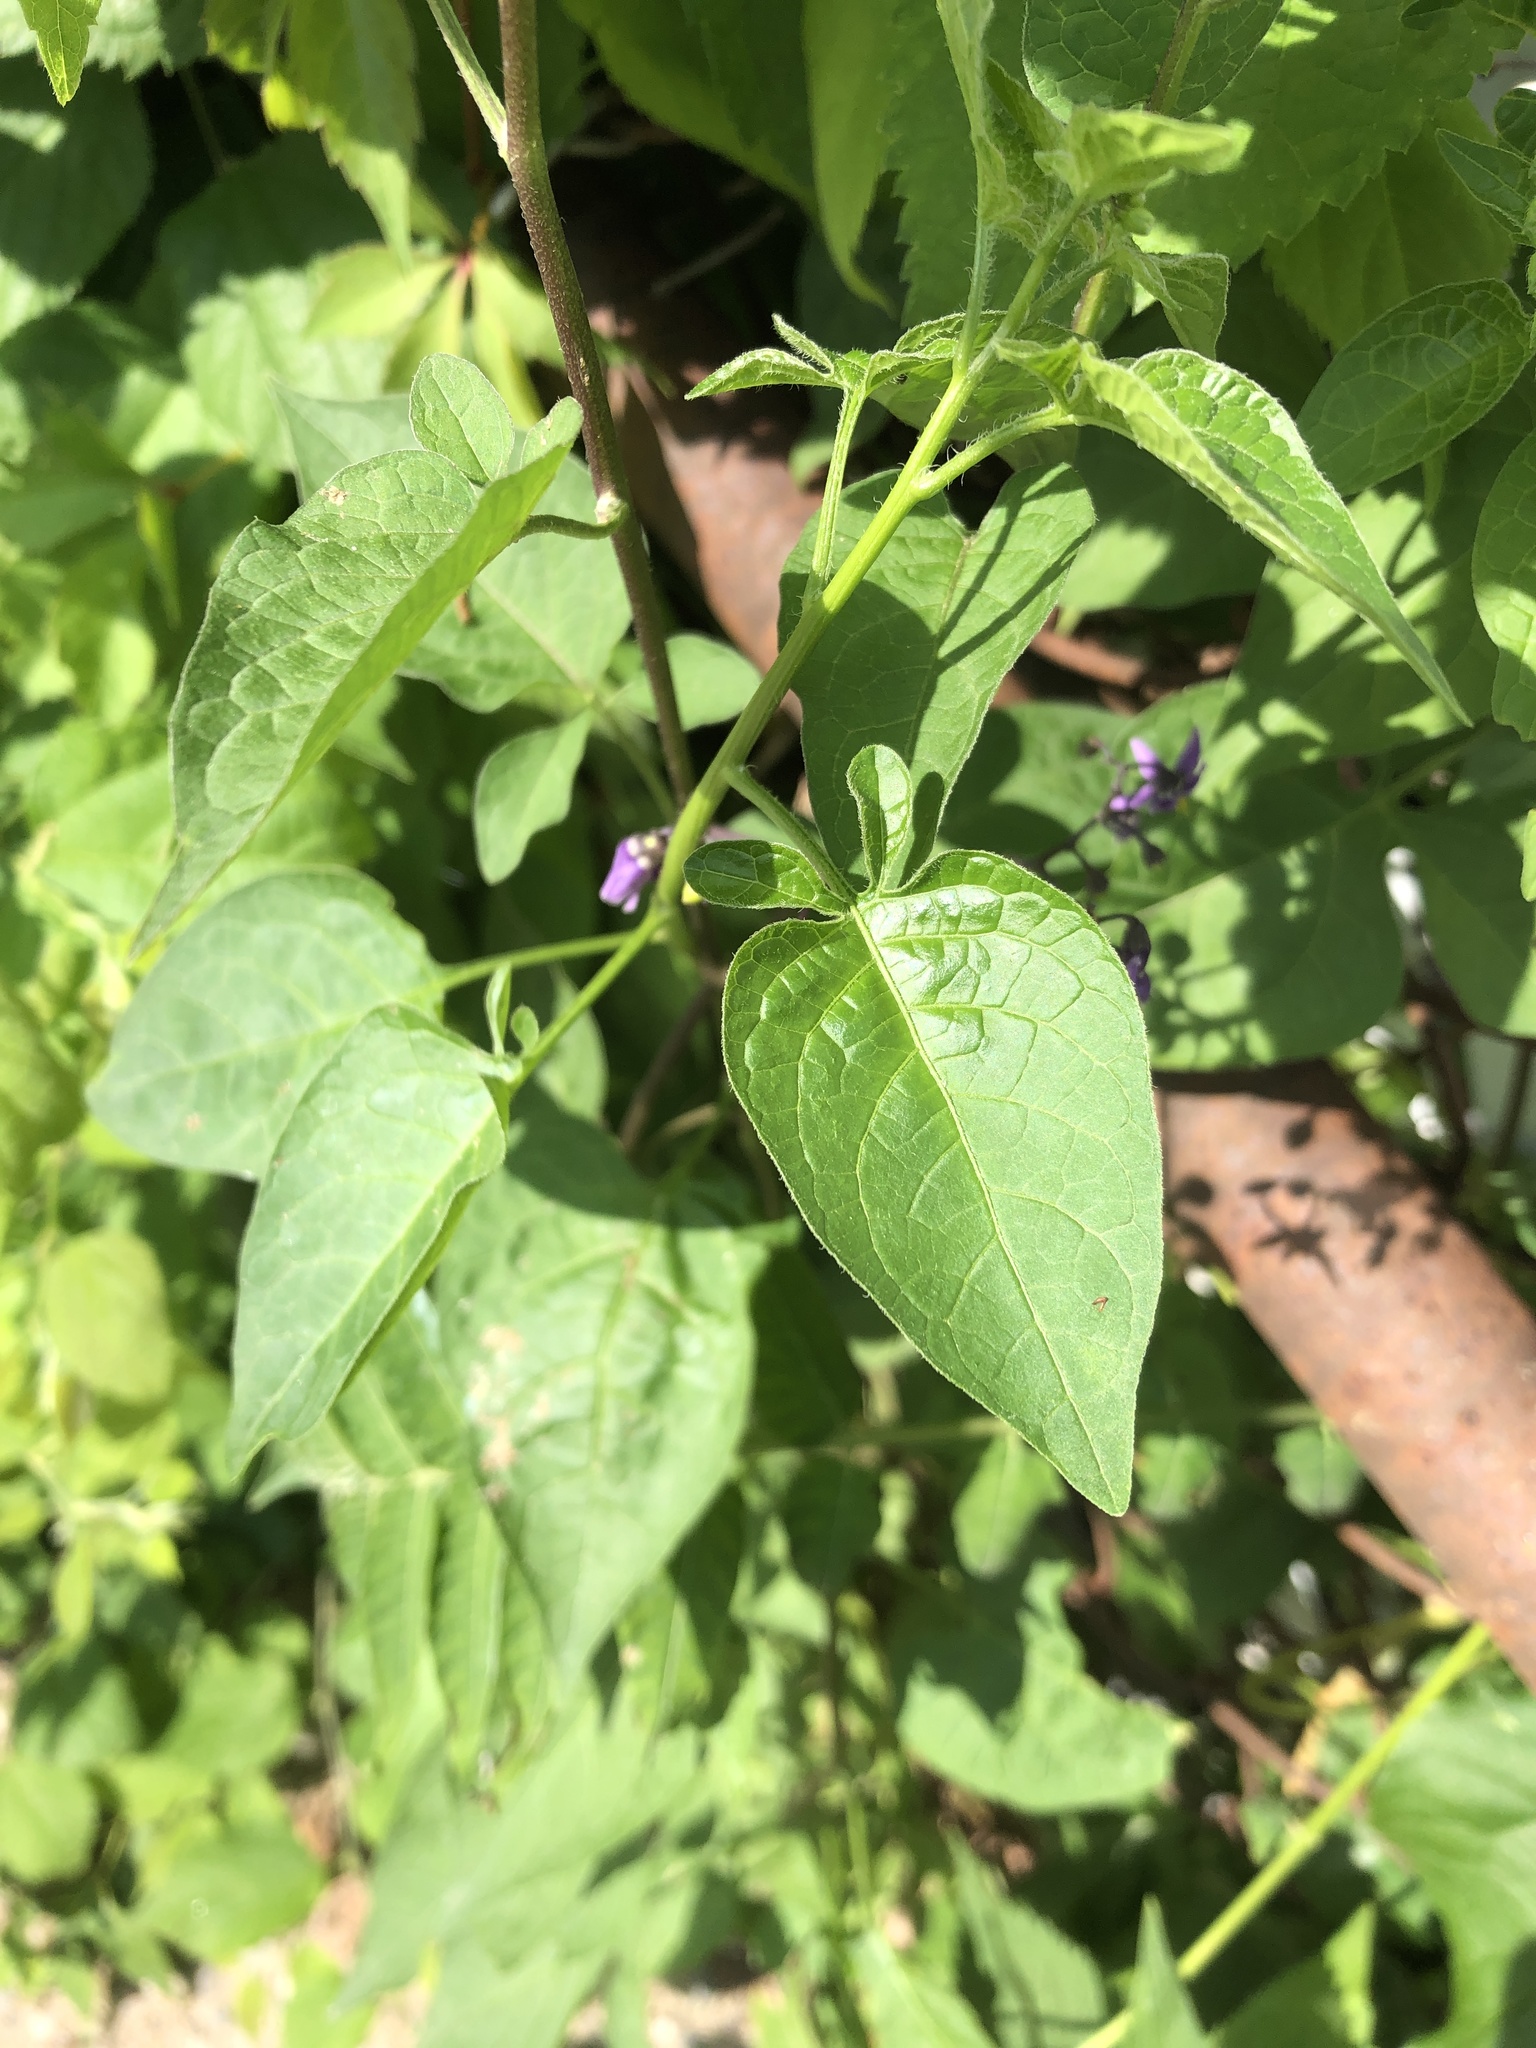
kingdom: Plantae
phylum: Tracheophyta
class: Magnoliopsida
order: Solanales
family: Solanaceae
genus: Solanum
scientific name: Solanum dulcamara
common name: Climbing nightshade
